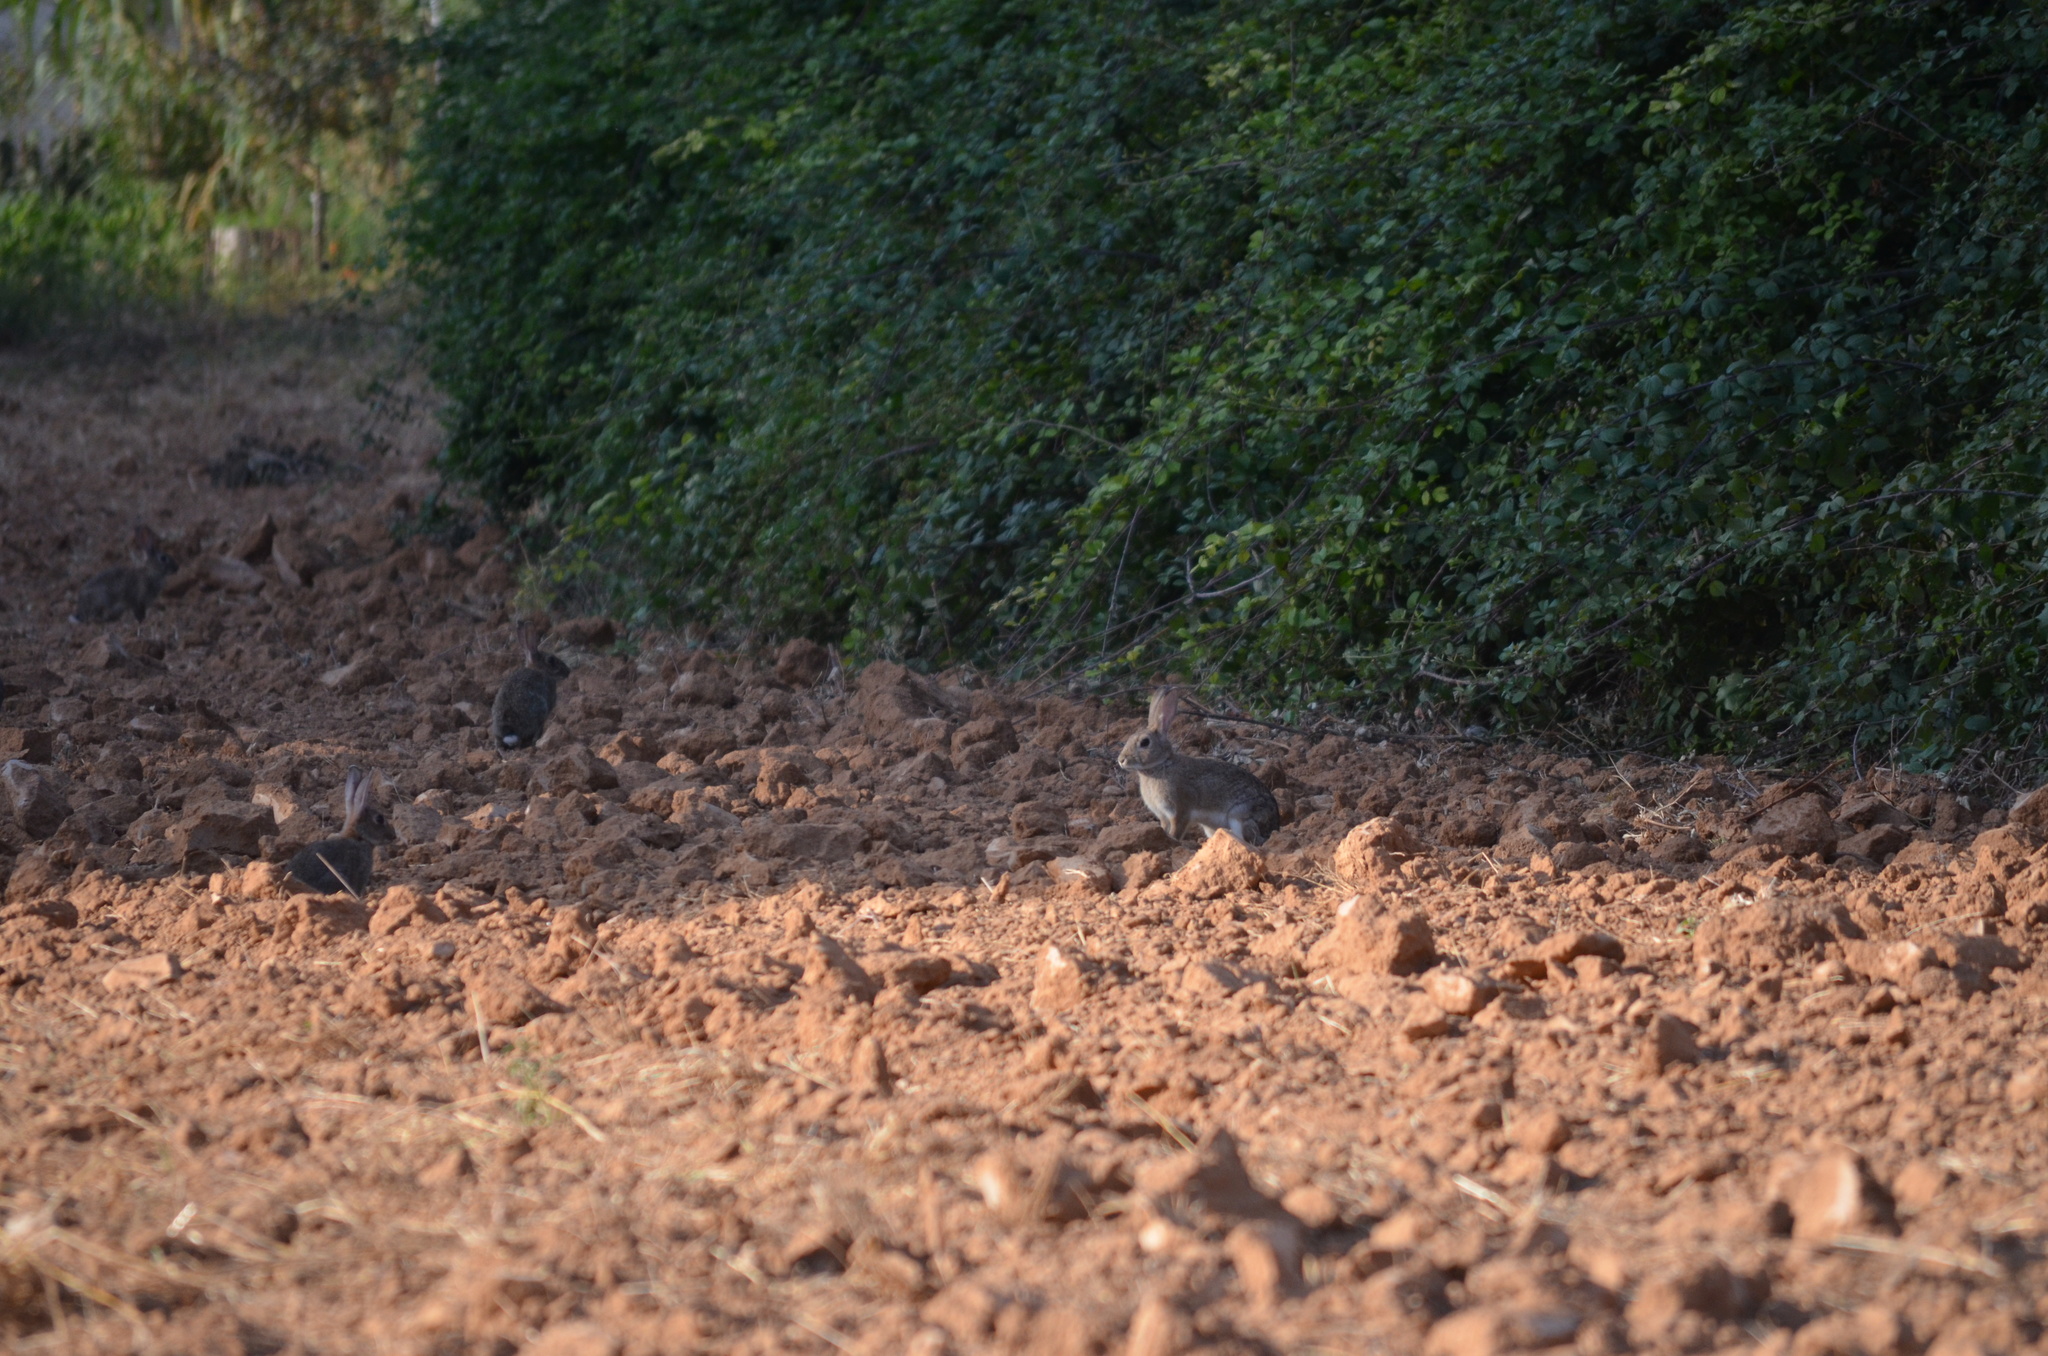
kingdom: Animalia
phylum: Chordata
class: Mammalia
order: Lagomorpha
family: Leporidae
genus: Oryctolagus
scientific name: Oryctolagus cuniculus
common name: European rabbit
